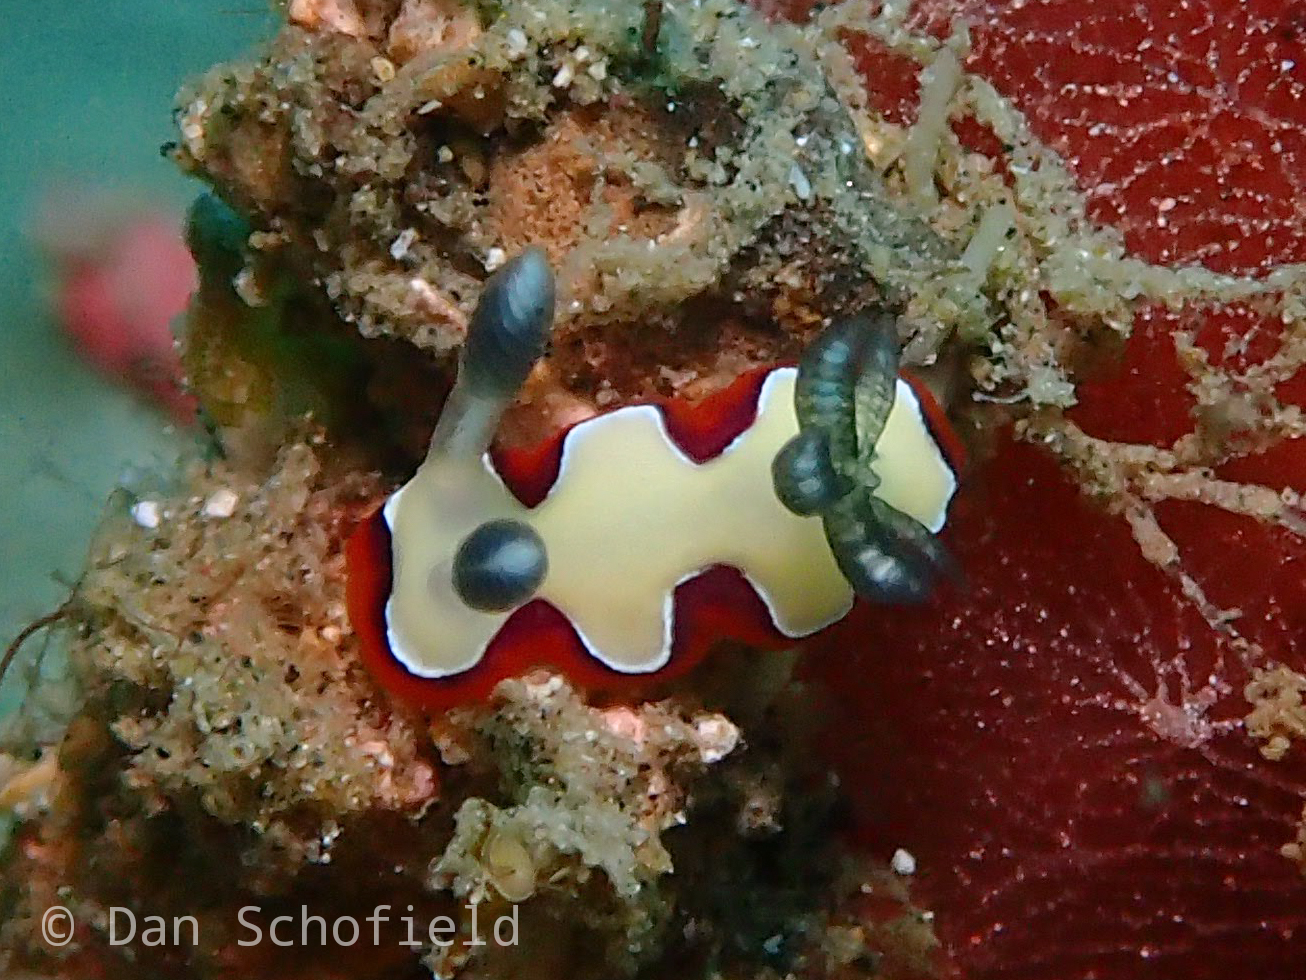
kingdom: Animalia
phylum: Mollusca
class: Gastropoda
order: Nudibranchia
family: Chromodorididae
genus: Goniobranchus
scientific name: Goniobranchus fidelis
